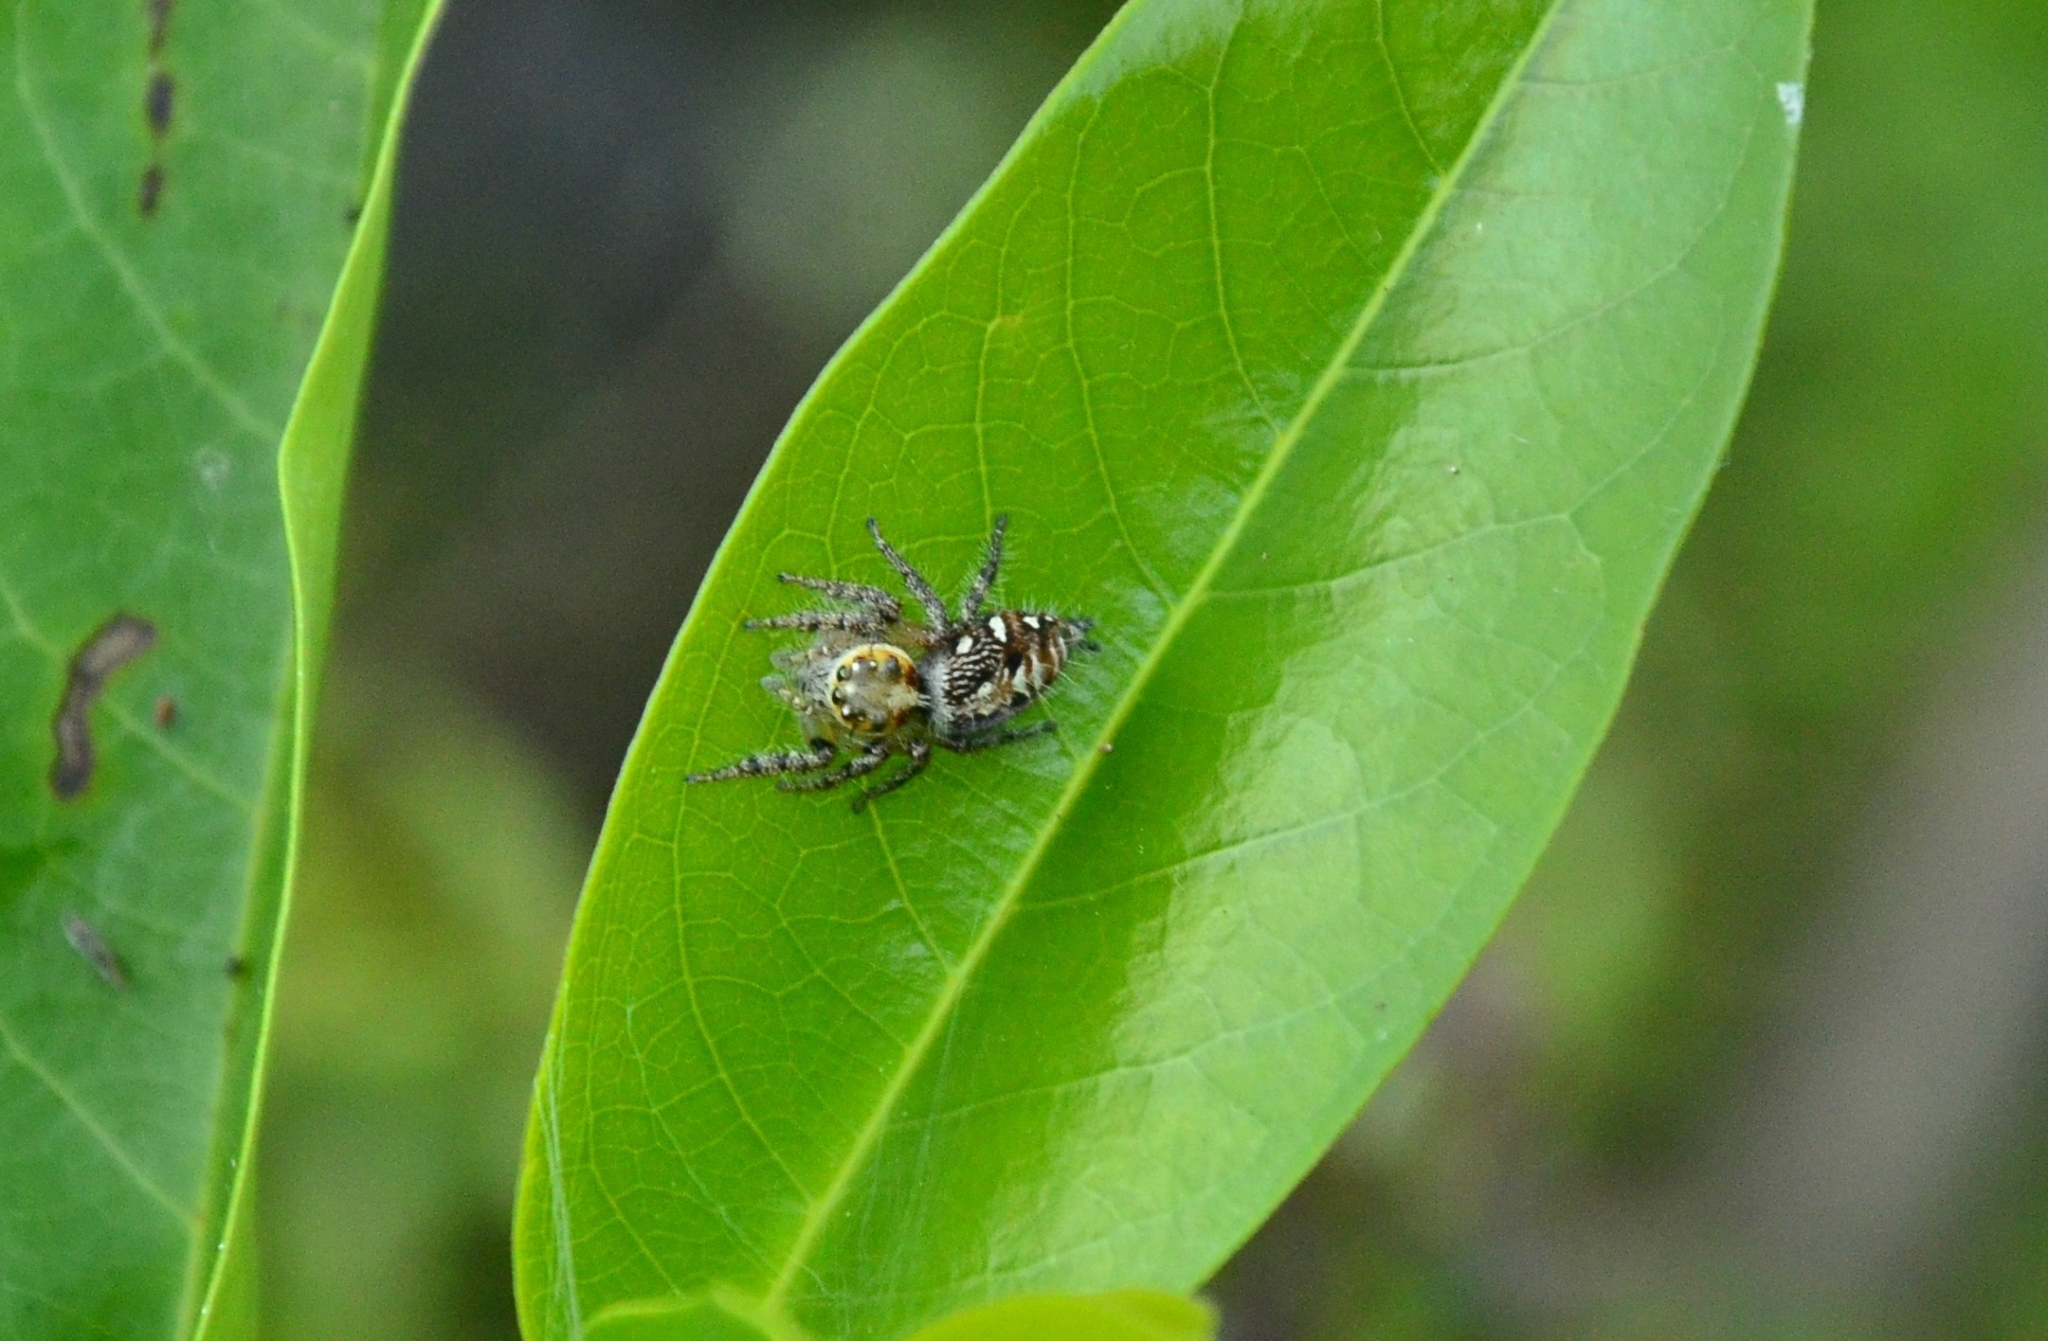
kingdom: Animalia
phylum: Arthropoda
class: Arachnida
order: Araneae
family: Salticidae
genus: Hyllus
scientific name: Hyllus semicupreus
